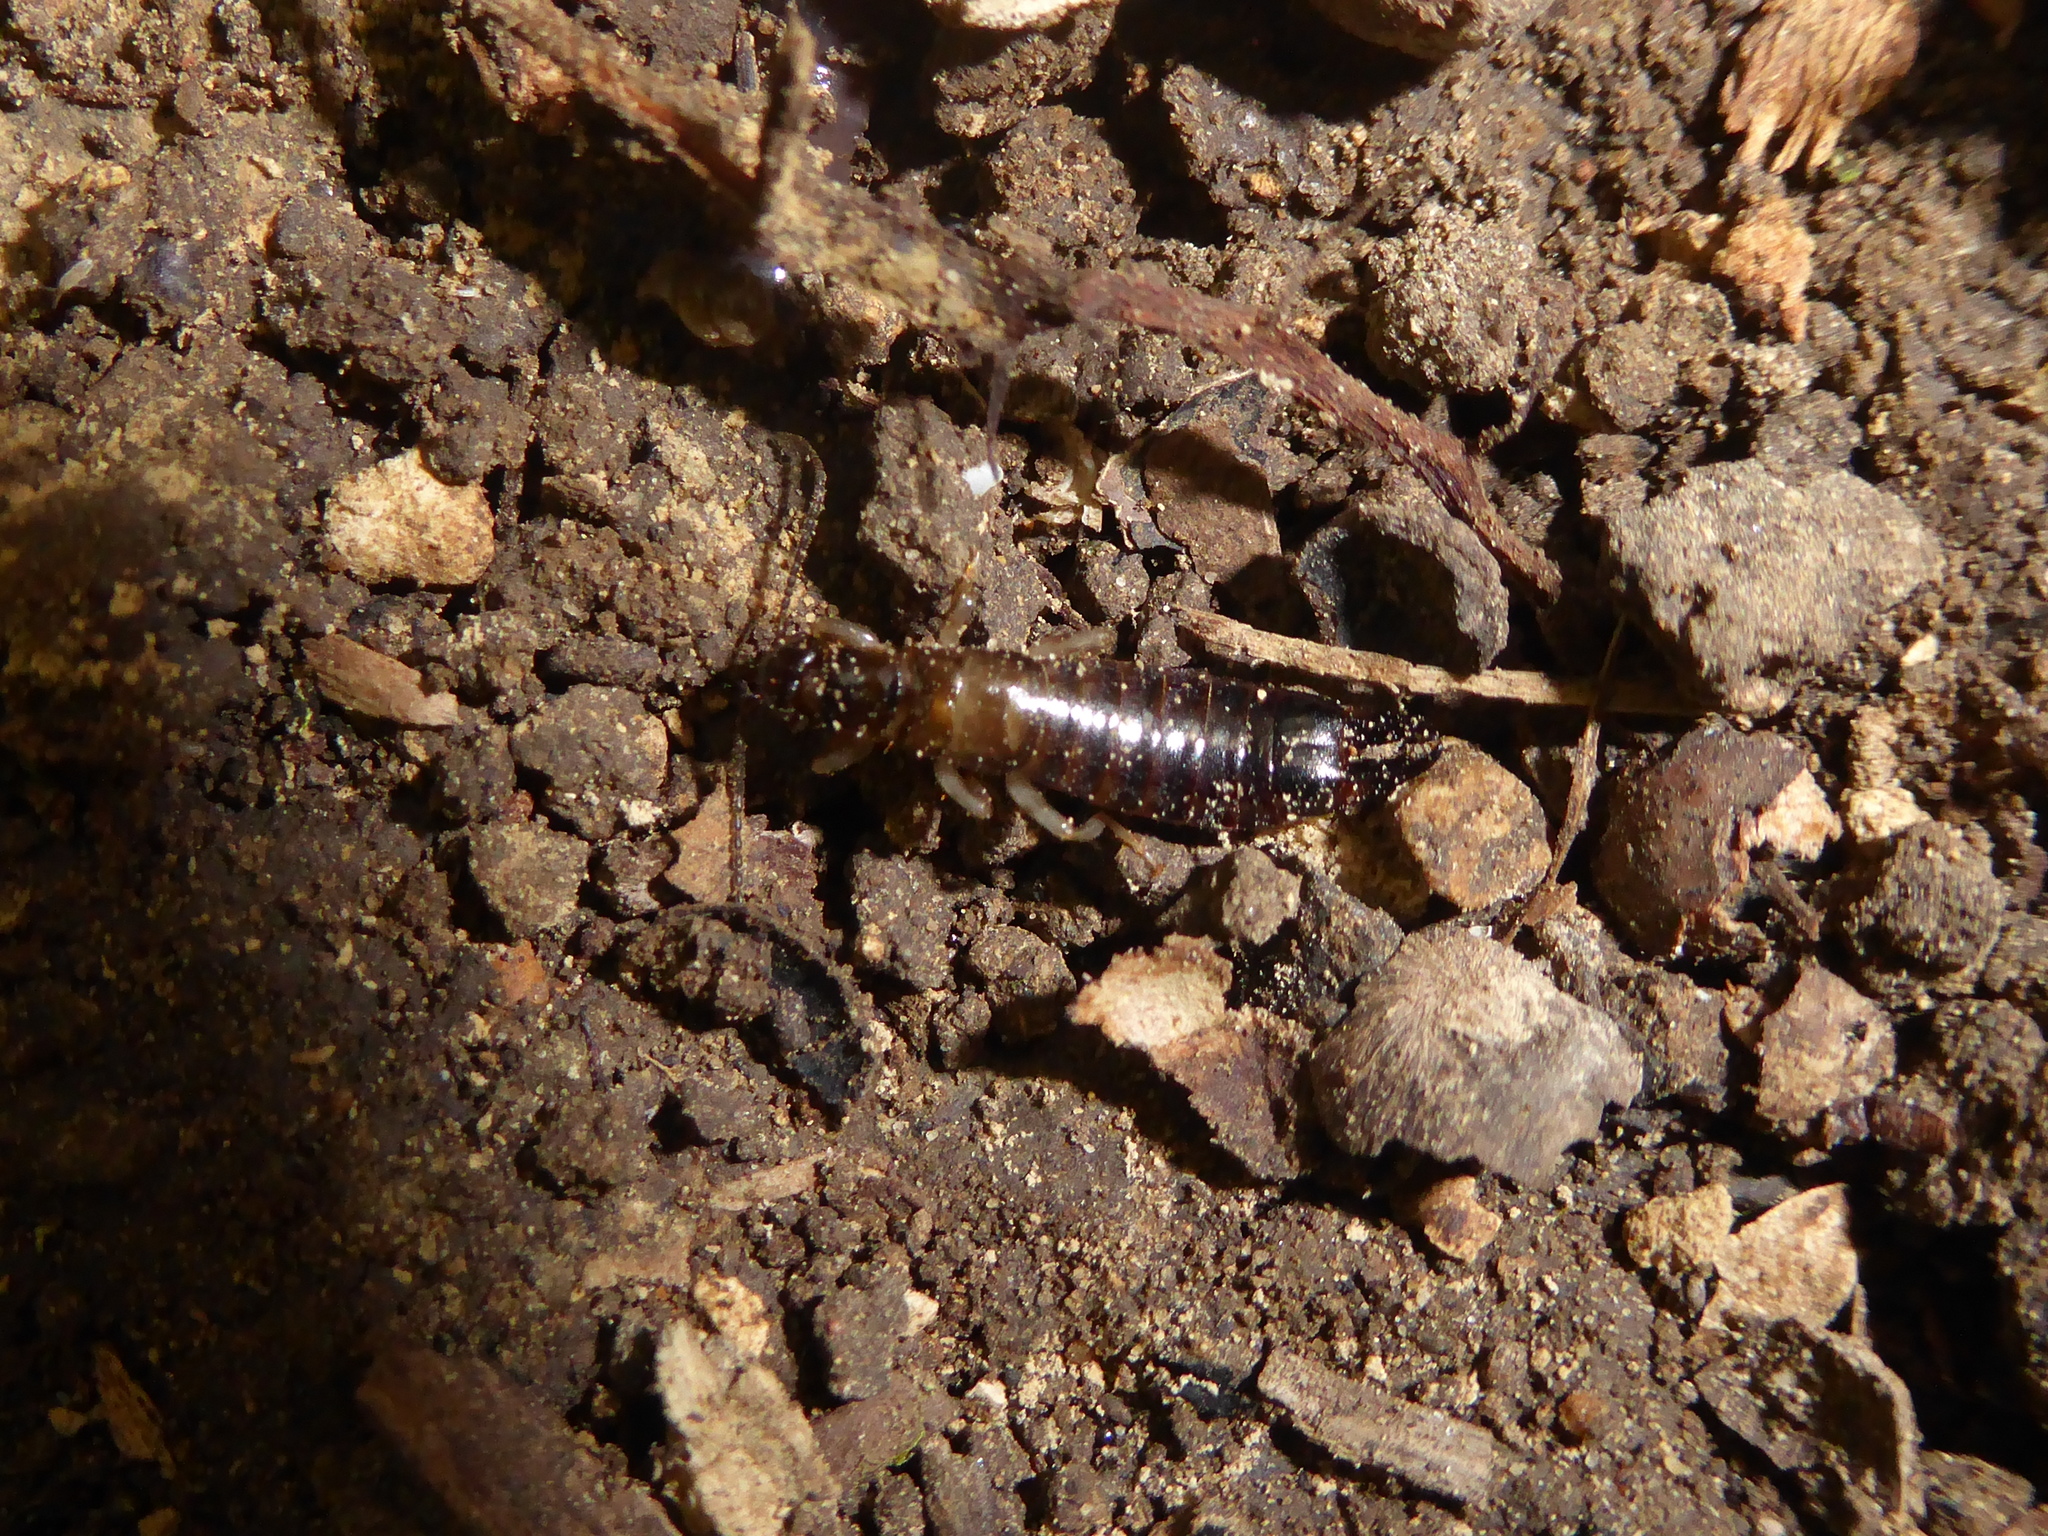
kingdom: Animalia
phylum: Arthropoda
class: Insecta
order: Dermaptera
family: Anisolabididae
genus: Euborellia
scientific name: Euborellia caraibea
